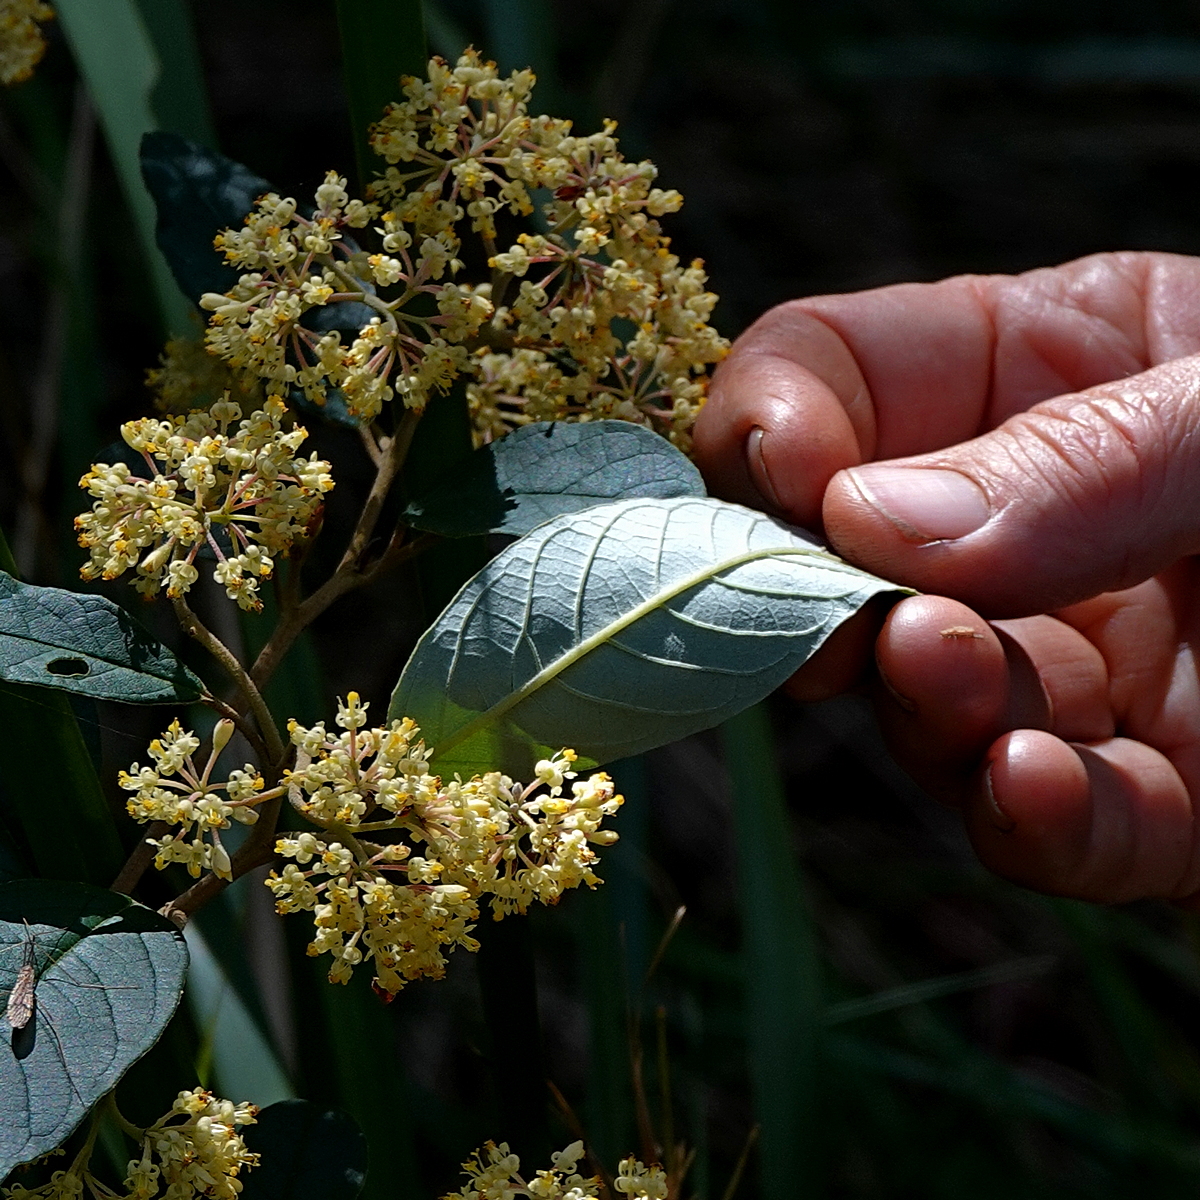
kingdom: Plantae
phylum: Tracheophyta
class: Magnoliopsida
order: Rosales
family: Rhamnaceae
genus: Pomaderris
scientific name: Pomaderris elliptica
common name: Yellow-dogwood
